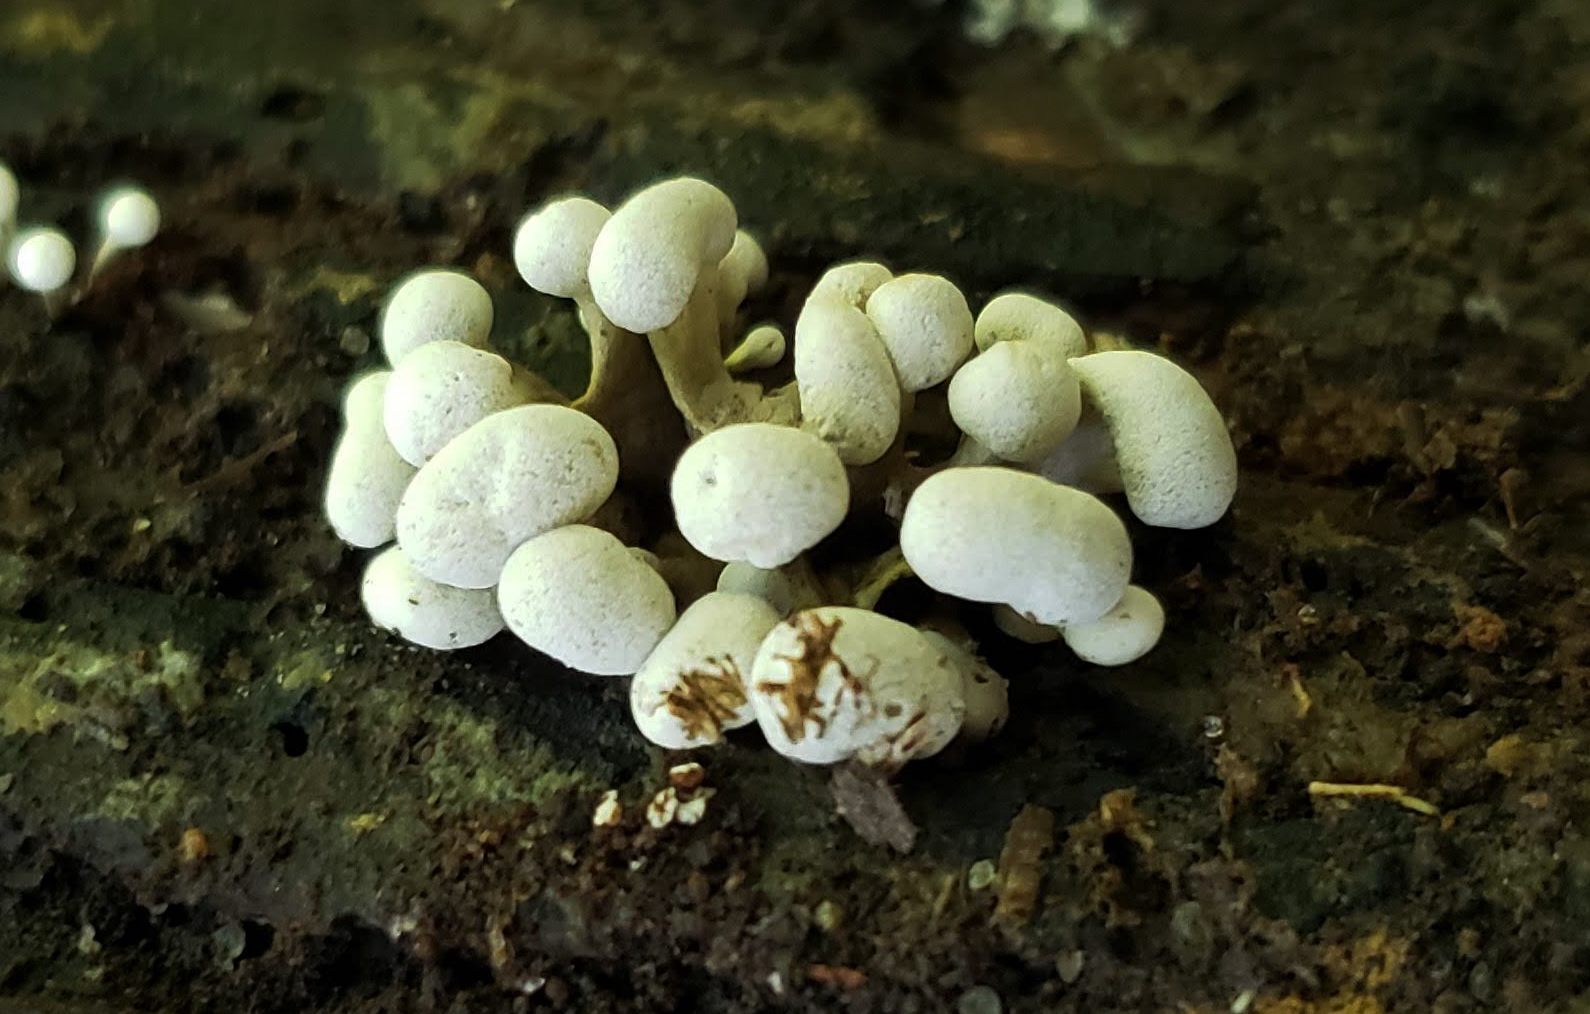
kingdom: Fungi
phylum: Basidiomycota
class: Atractiellomycetes
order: Atractiellales
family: Phleogenaceae
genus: Phleogena
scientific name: Phleogena faginea
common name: Fenugreek stalkball
